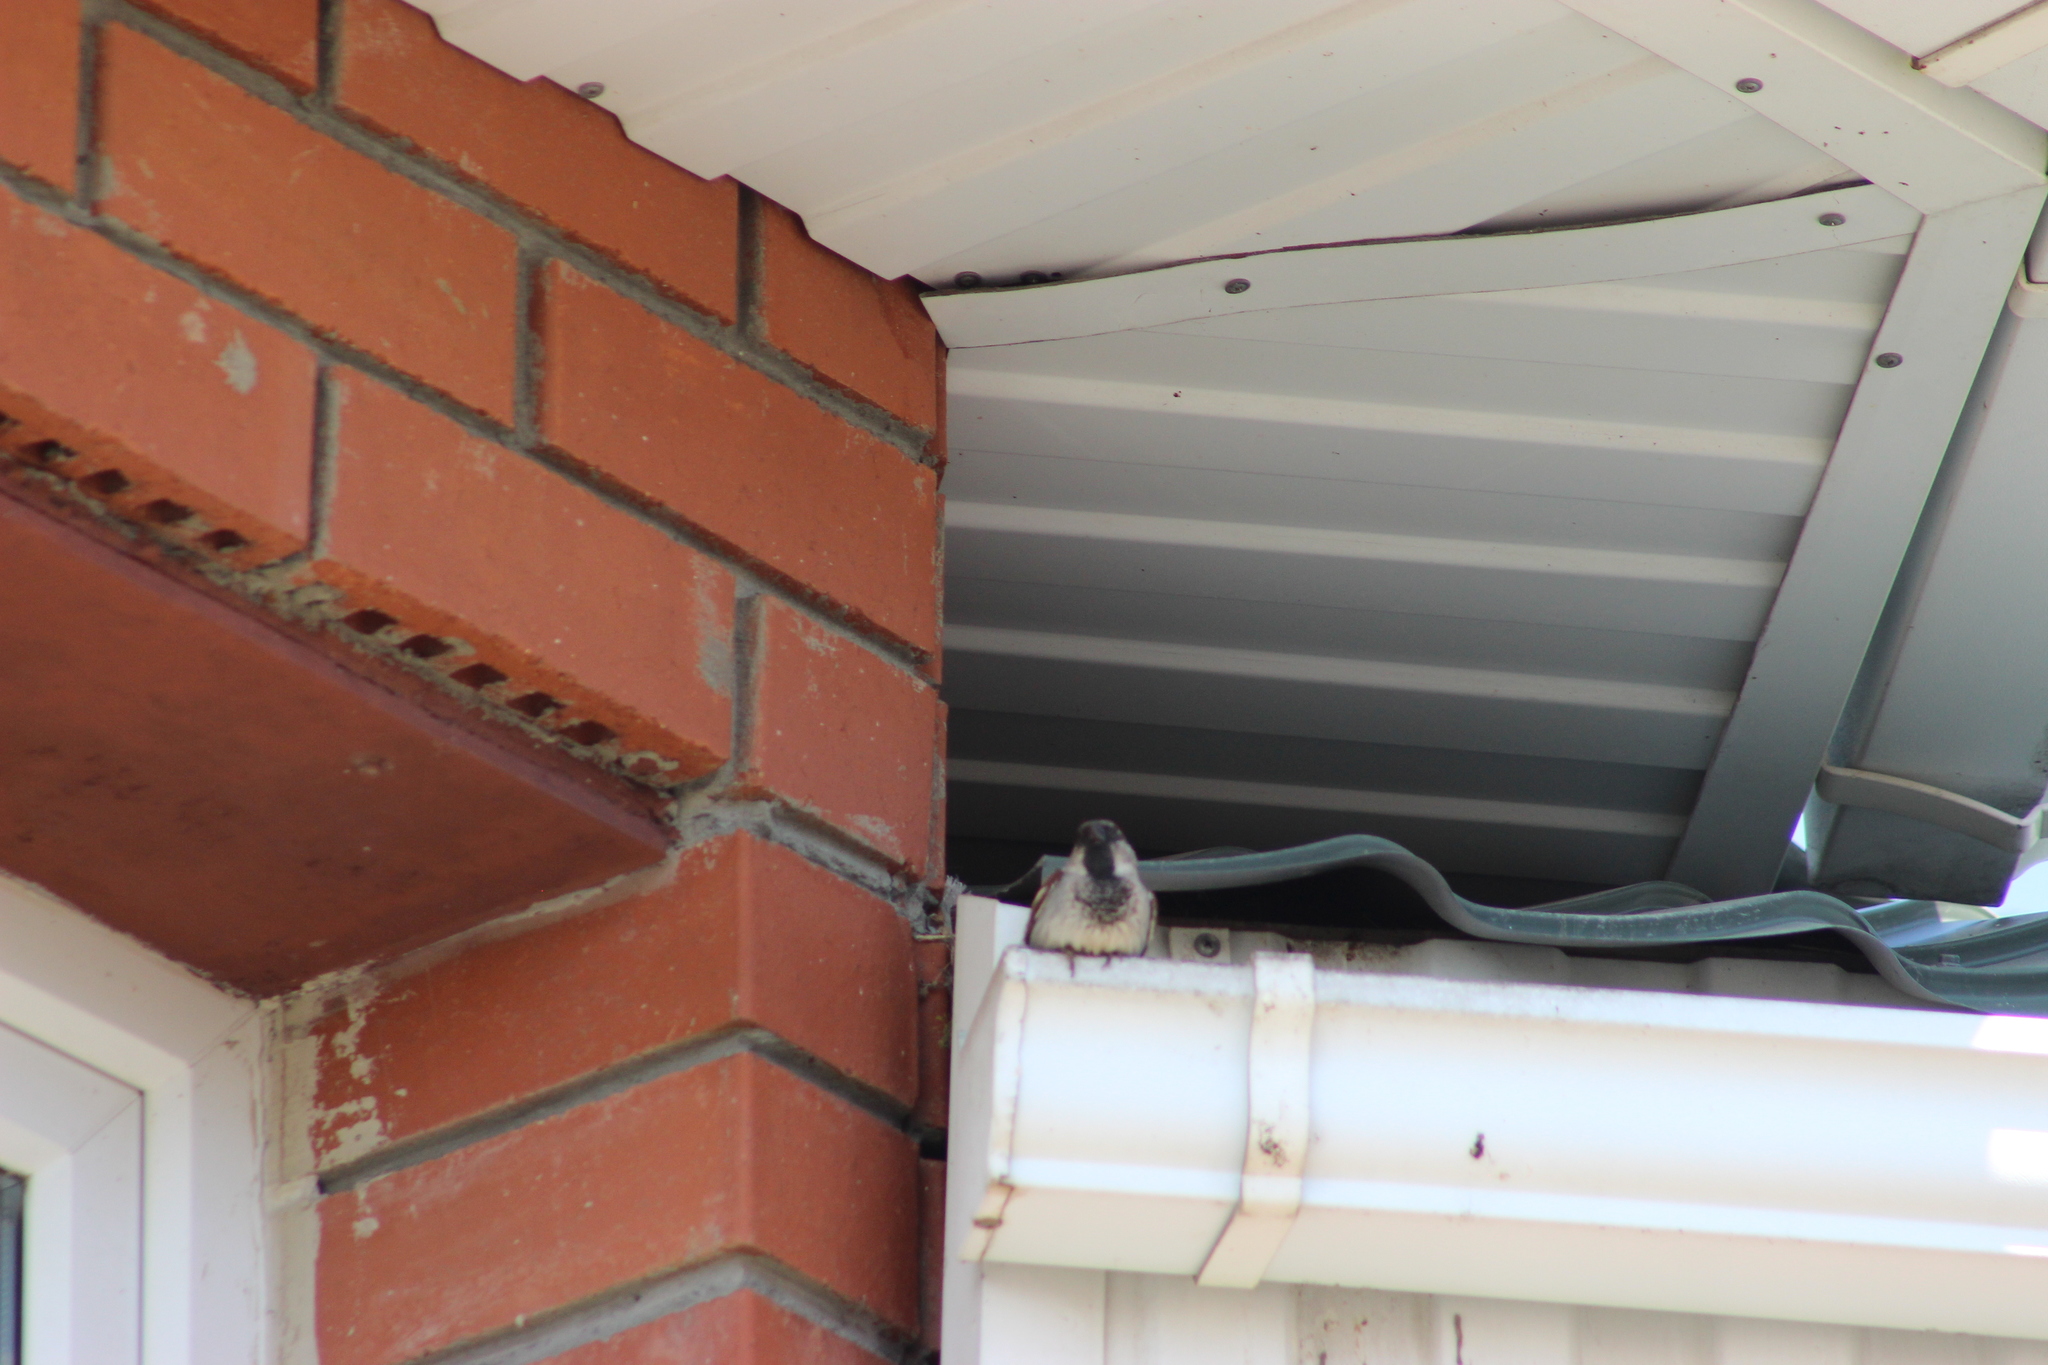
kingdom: Animalia
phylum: Chordata
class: Aves
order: Passeriformes
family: Passeridae
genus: Passer
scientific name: Passer domesticus
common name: House sparrow
